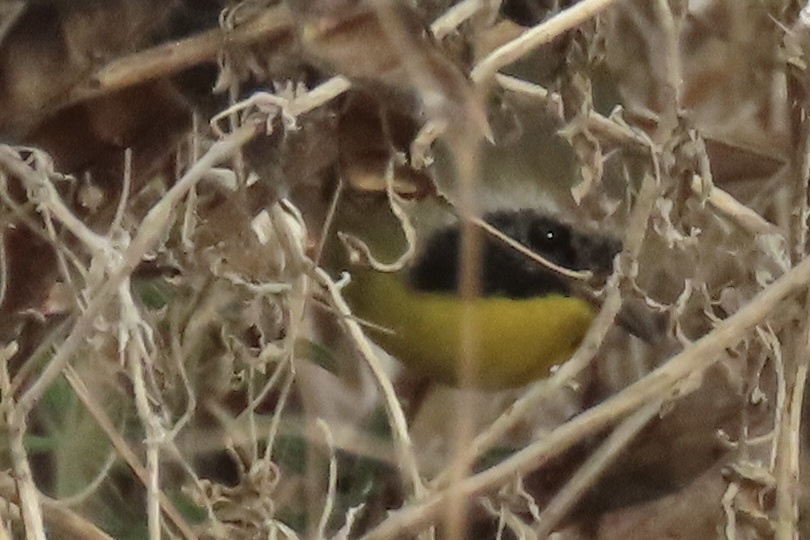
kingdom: Animalia
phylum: Chordata
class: Aves
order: Passeriformes
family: Parulidae
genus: Geothlypis
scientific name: Geothlypis trichas
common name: Common yellowthroat
